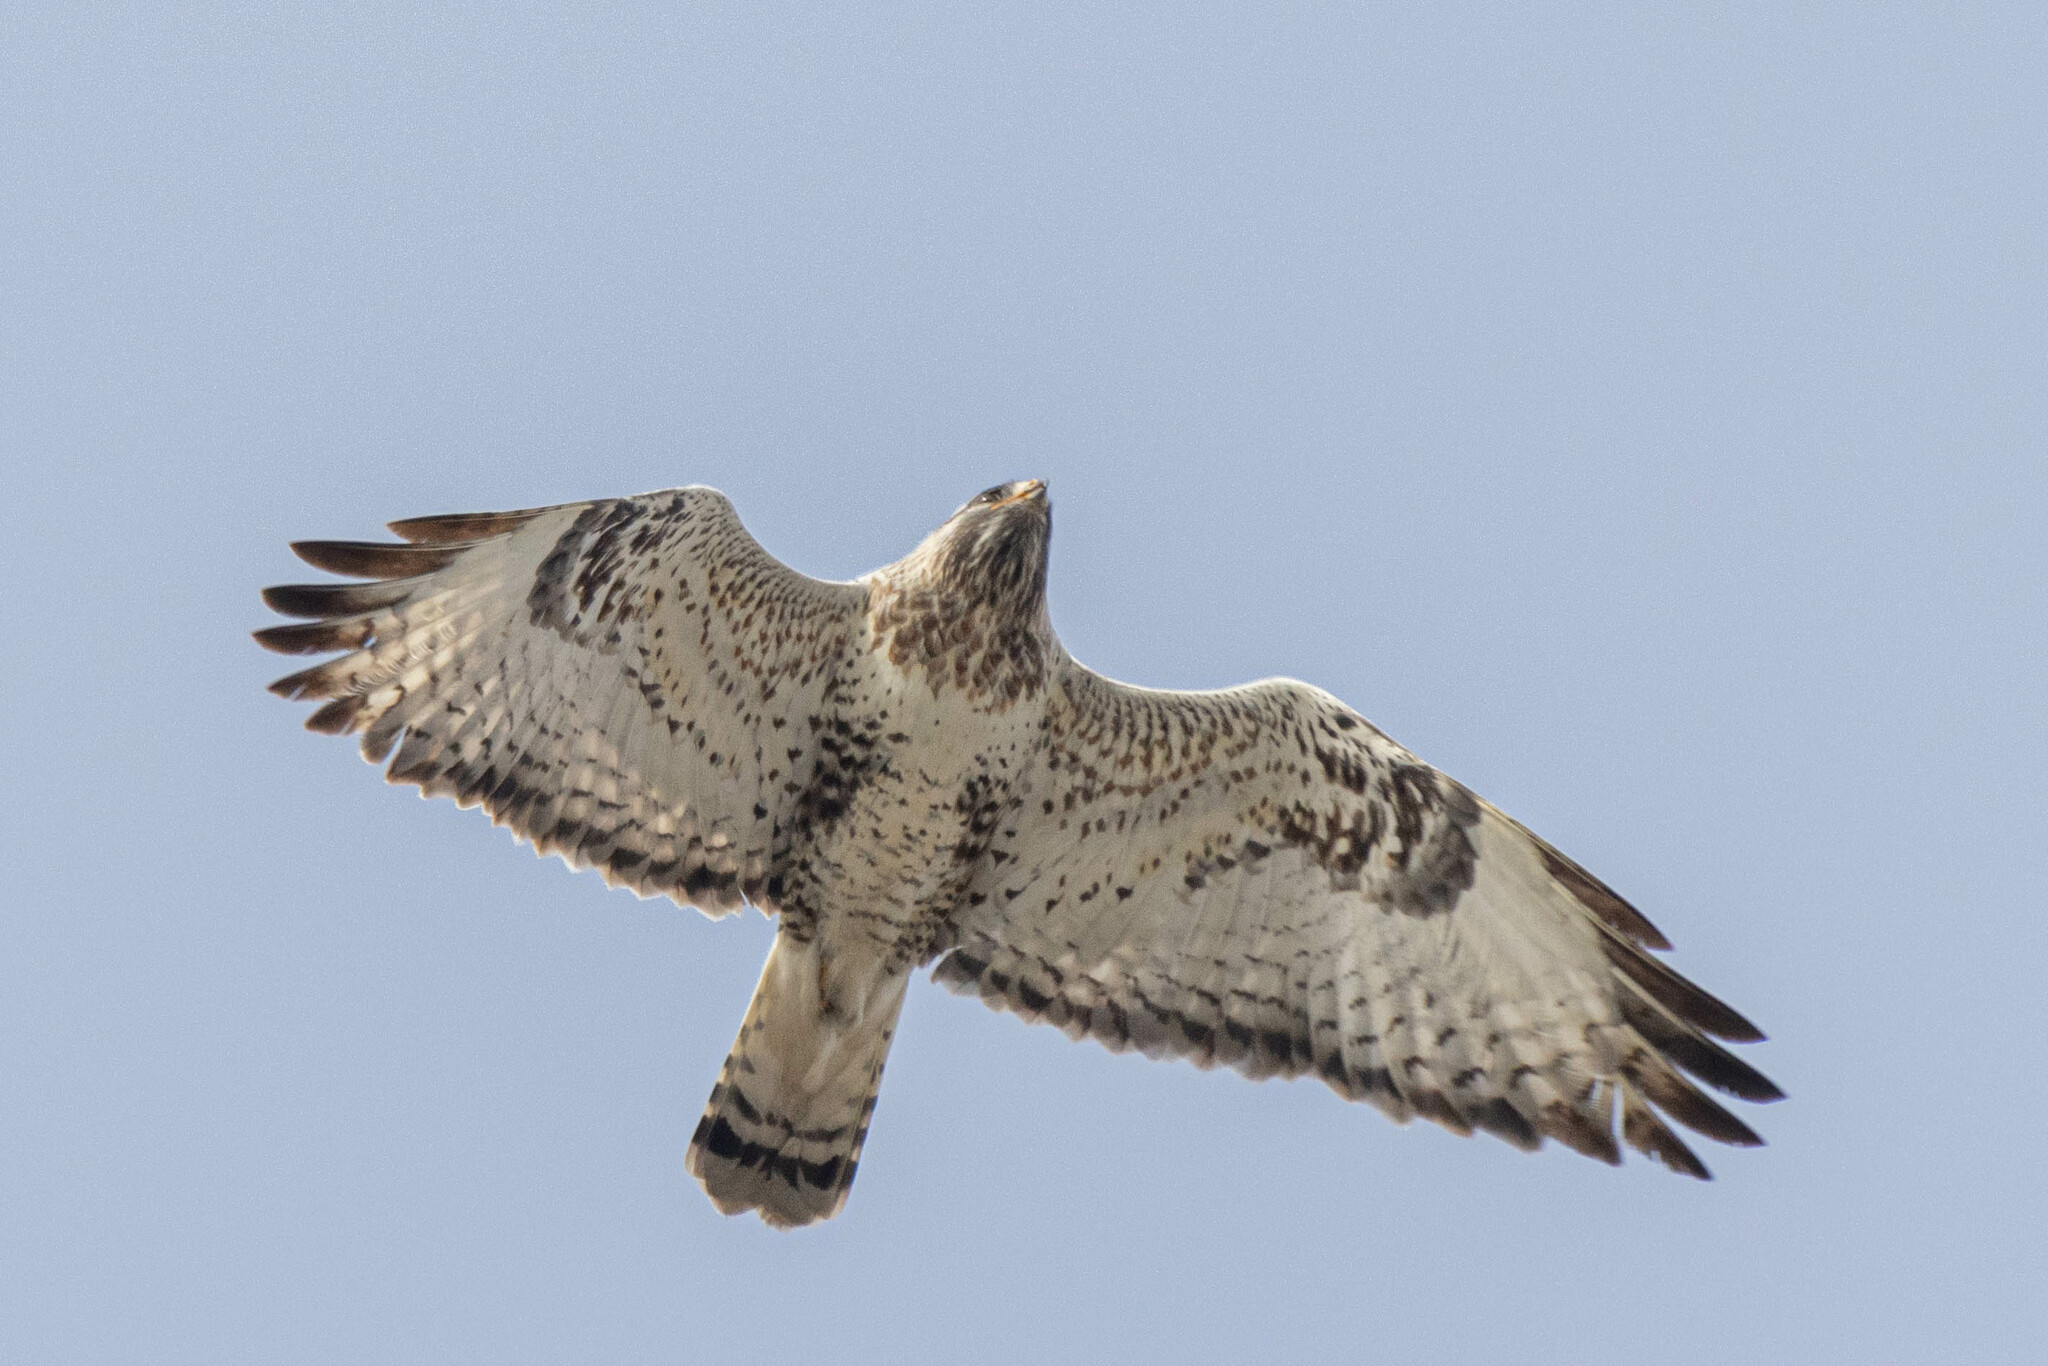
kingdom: Animalia
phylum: Chordata
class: Aves
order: Accipitriformes
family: Accipitridae
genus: Buteo
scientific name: Buteo lagopus
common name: Rough-legged buzzard
